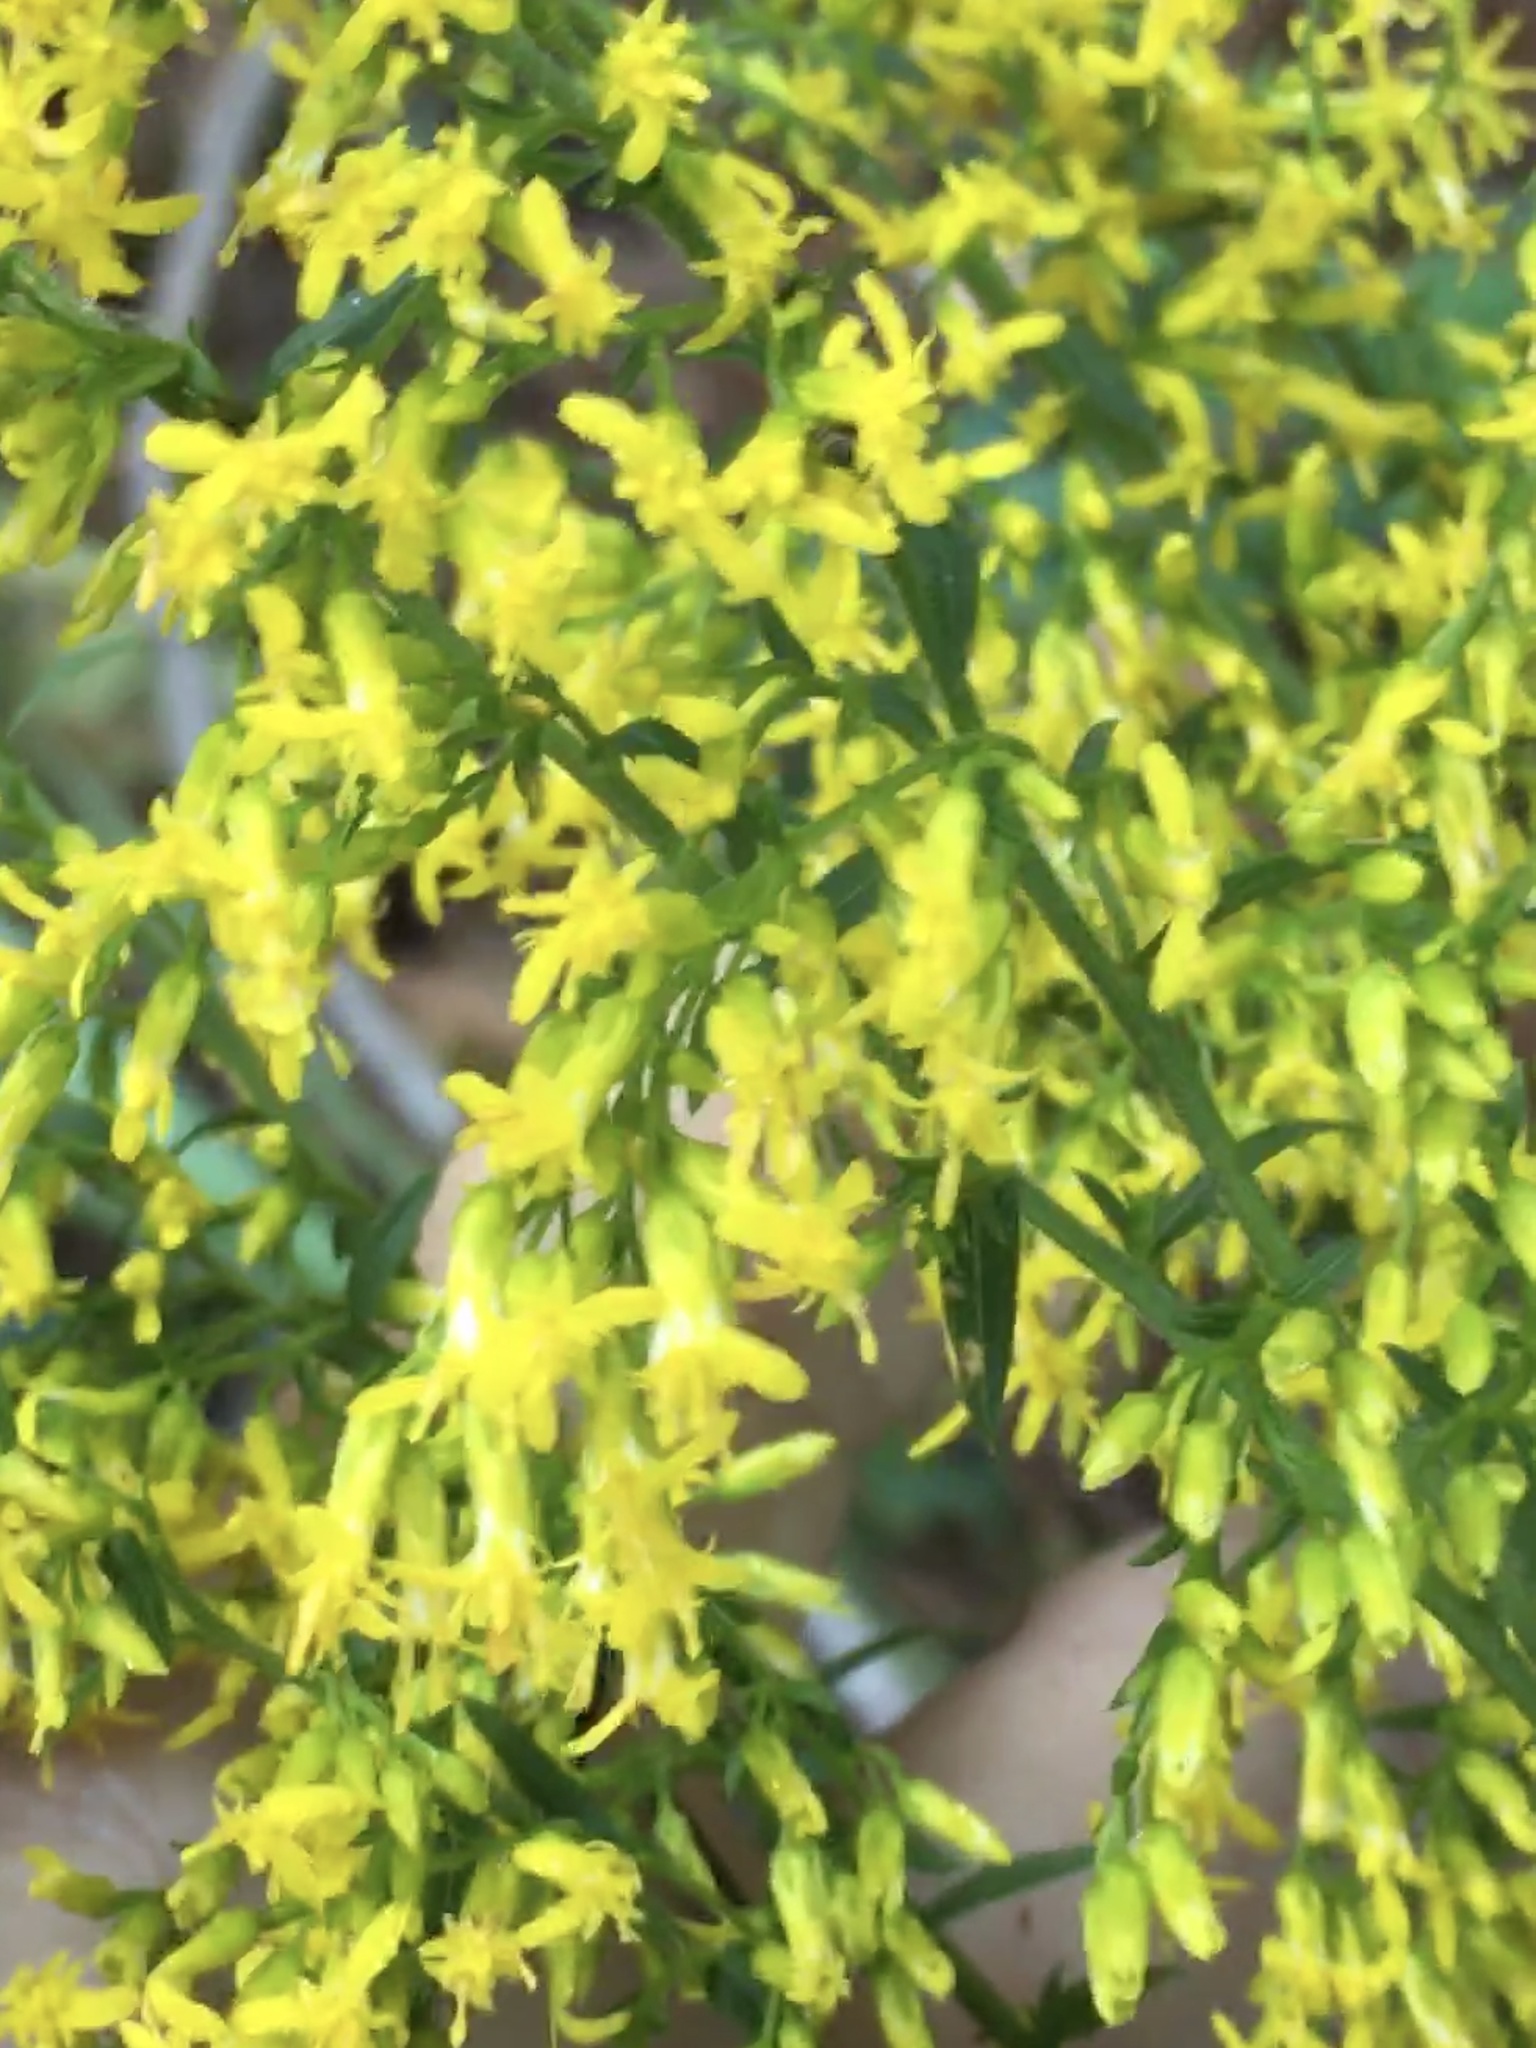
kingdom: Plantae
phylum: Tracheophyta
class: Magnoliopsida
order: Asterales
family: Asteraceae
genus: Solidago
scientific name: Solidago odora
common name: Anise-scented goldenrod
